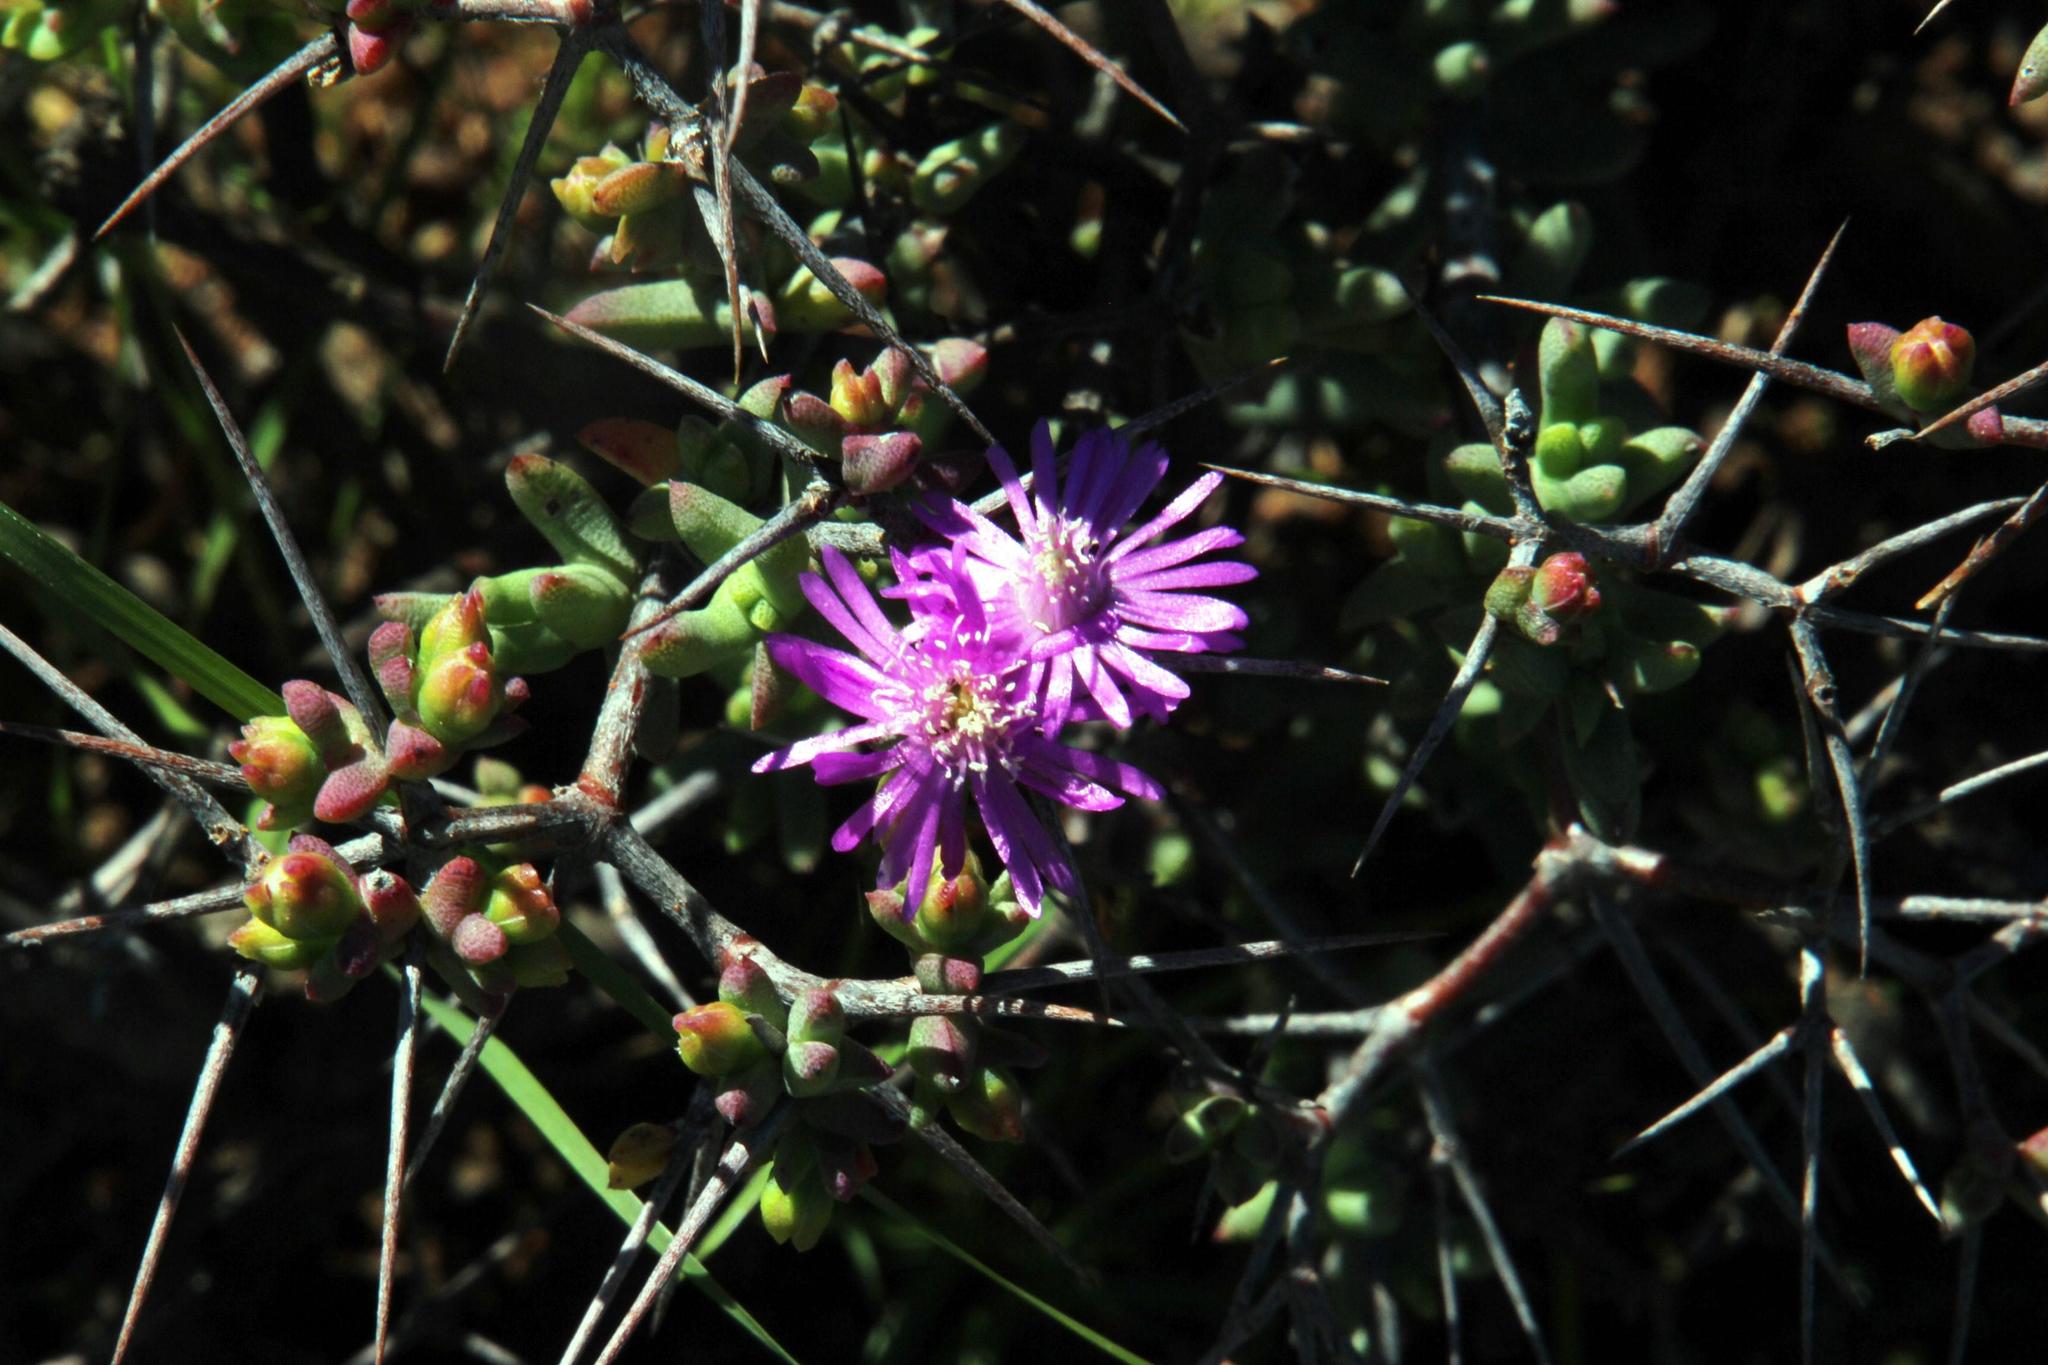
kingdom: Plantae
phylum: Tracheophyta
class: Magnoliopsida
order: Caryophyllales
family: Aizoaceae
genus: Ruschia
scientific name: Ruschia intricata
